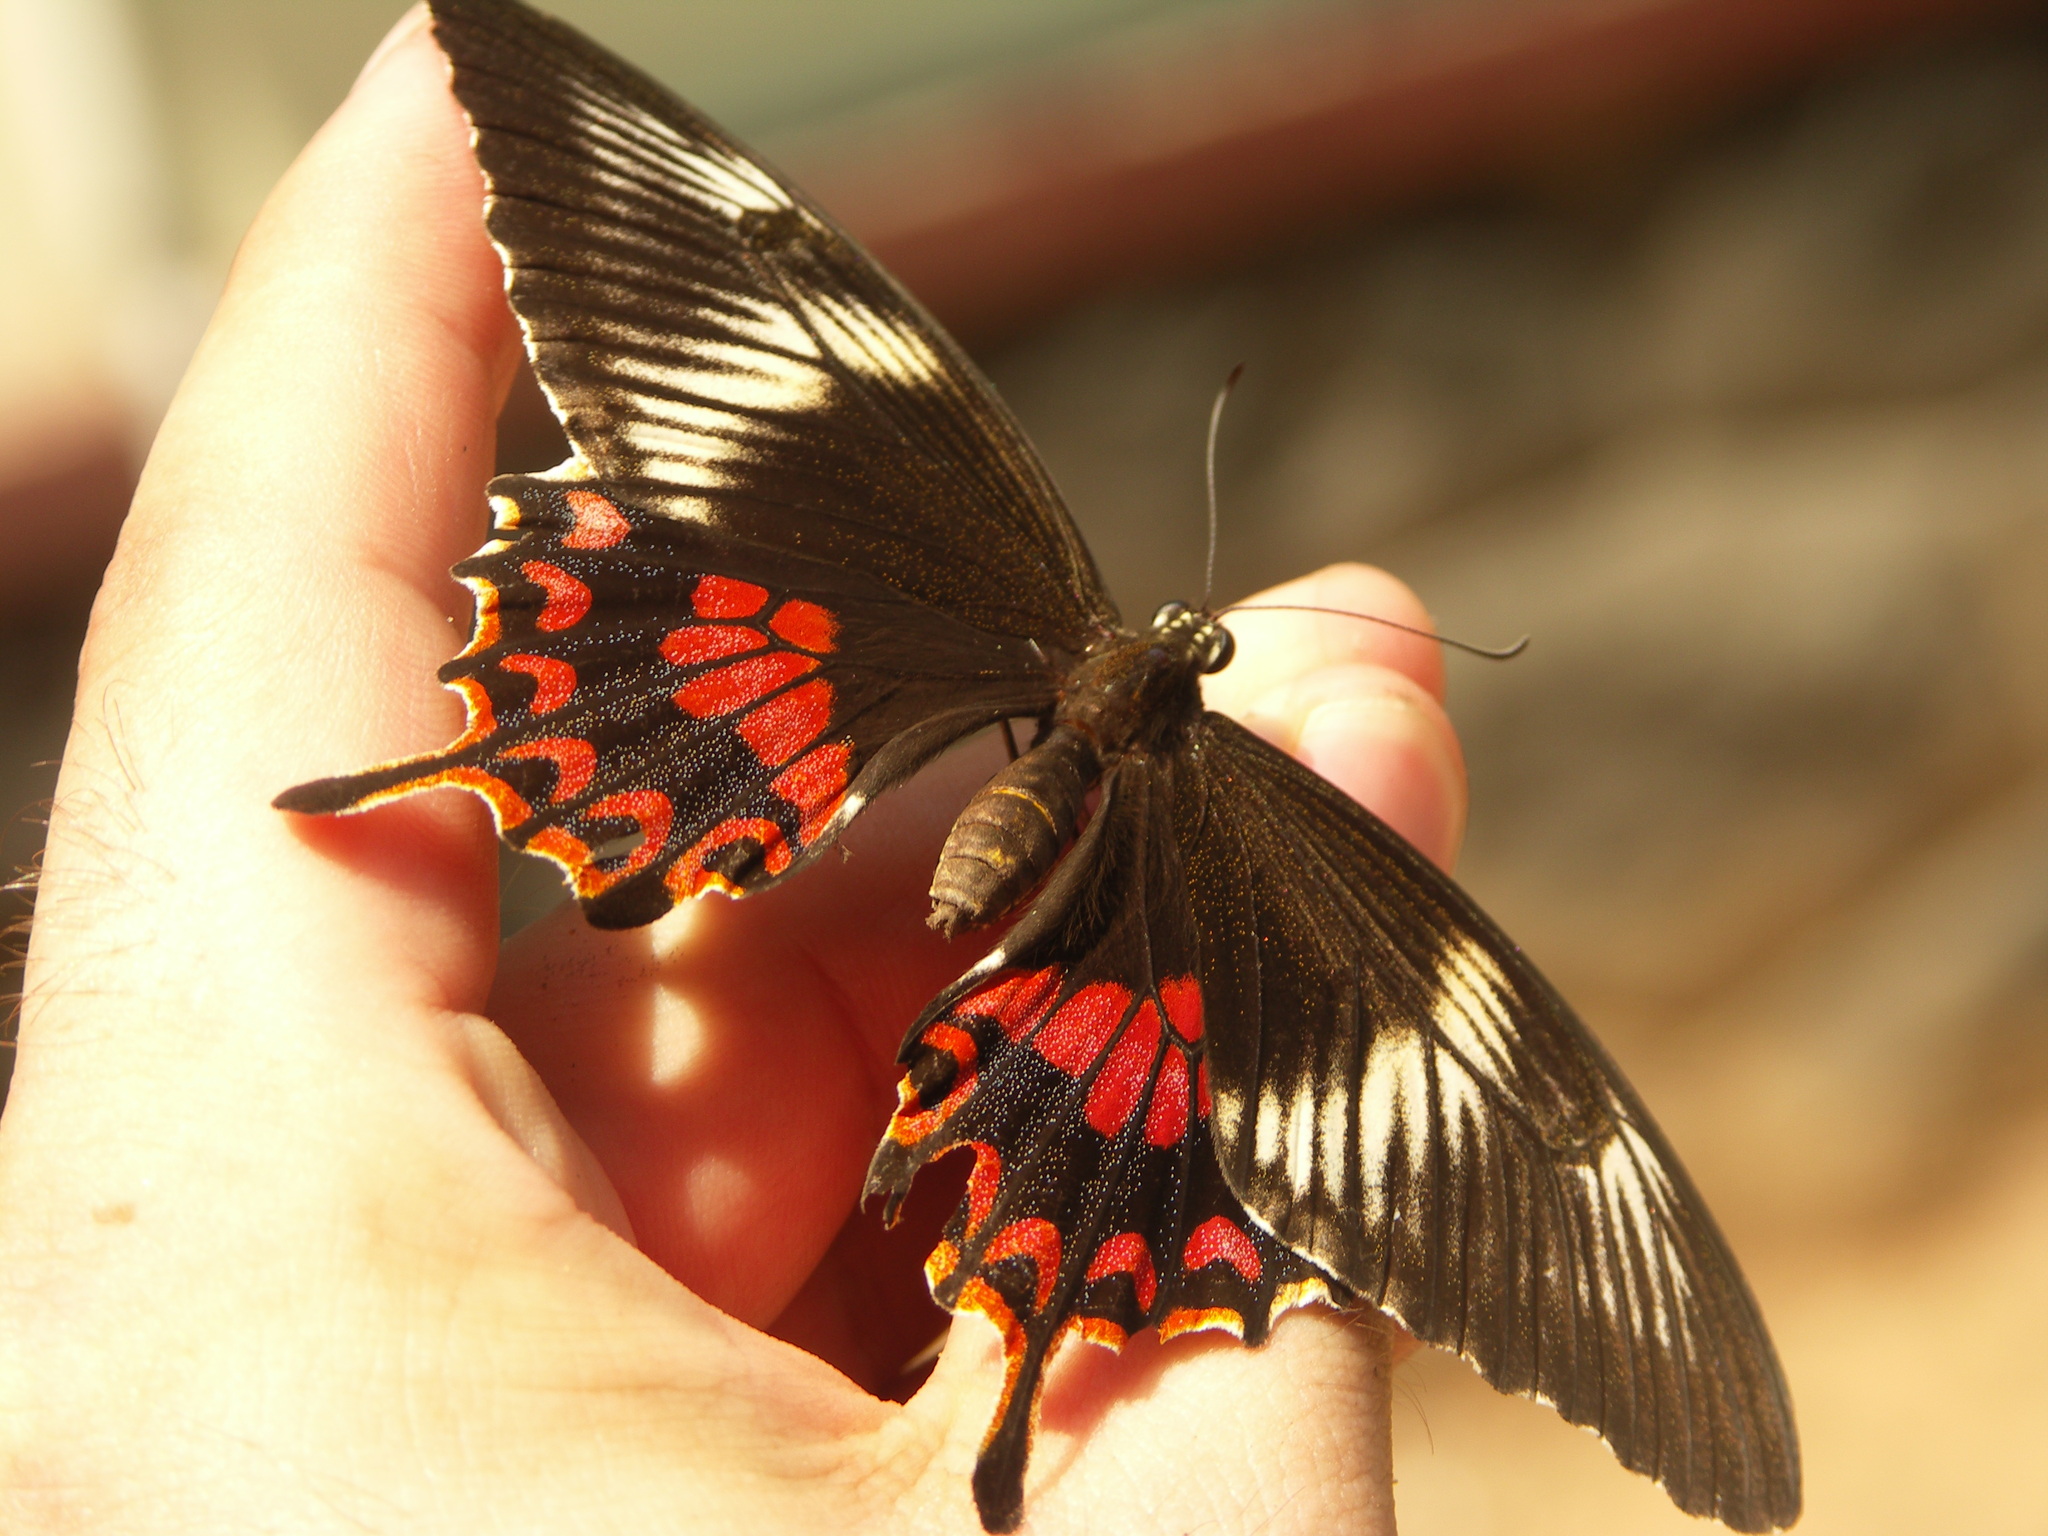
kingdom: Animalia
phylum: Arthropoda
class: Insecta
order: Lepidoptera
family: Papilionidae
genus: Papilio
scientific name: Papilio polytes
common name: Common mormon
